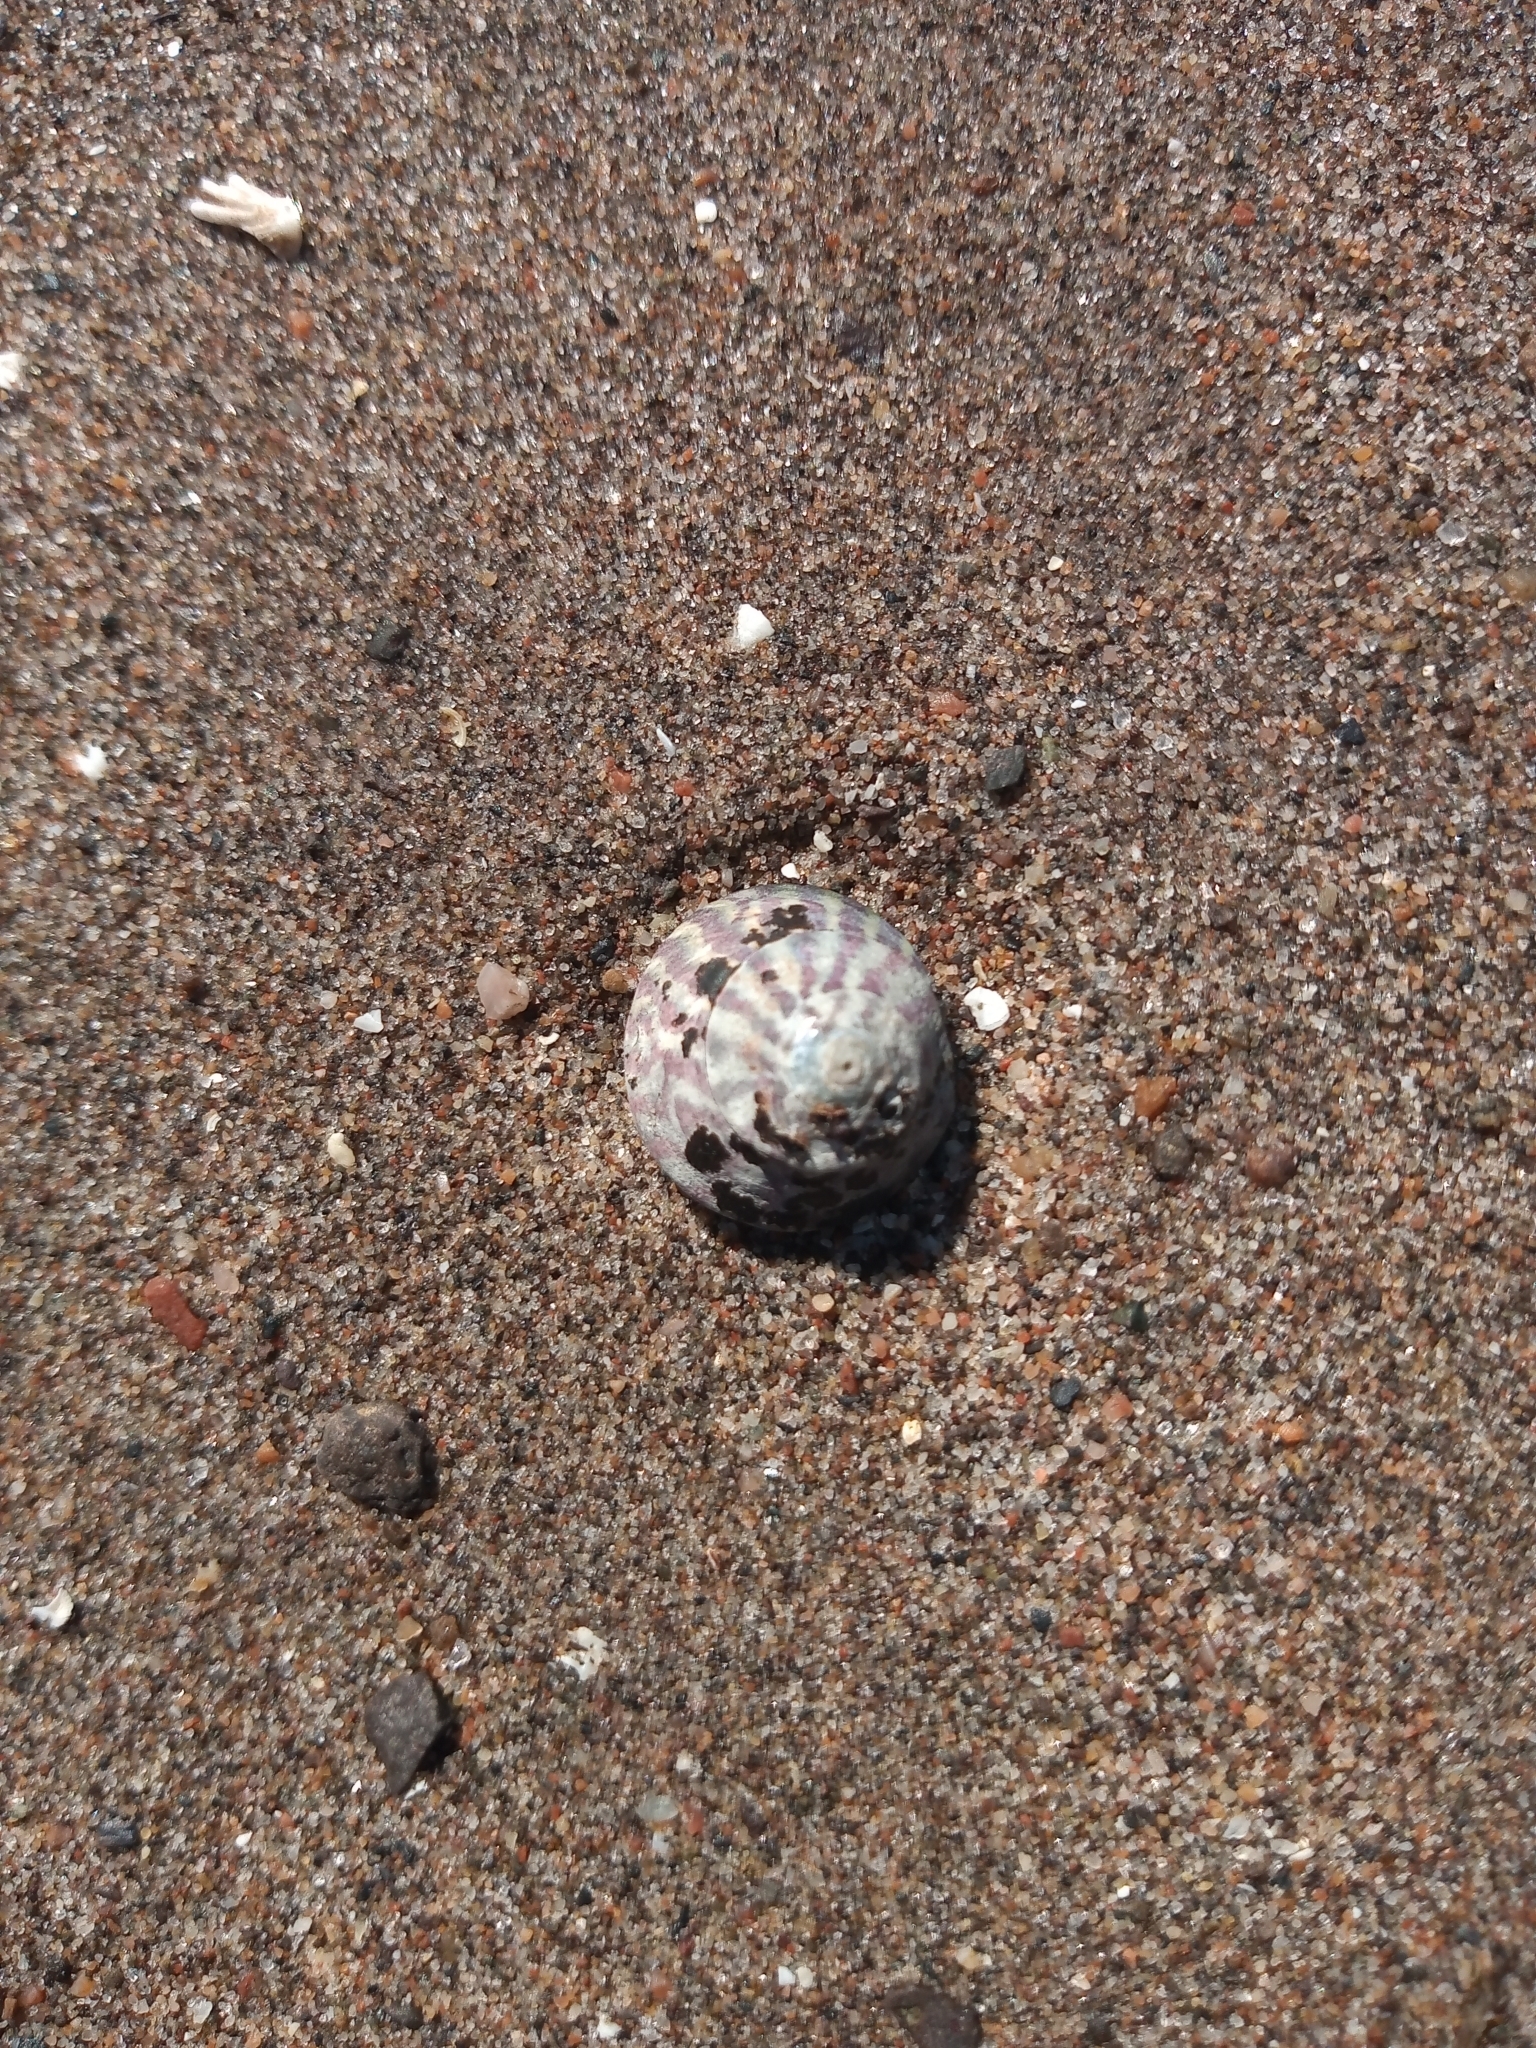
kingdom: Animalia
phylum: Mollusca
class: Gastropoda
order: Trochida
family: Trochidae
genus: Steromphala
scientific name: Steromphala umbilicalis
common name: Flat top shell
